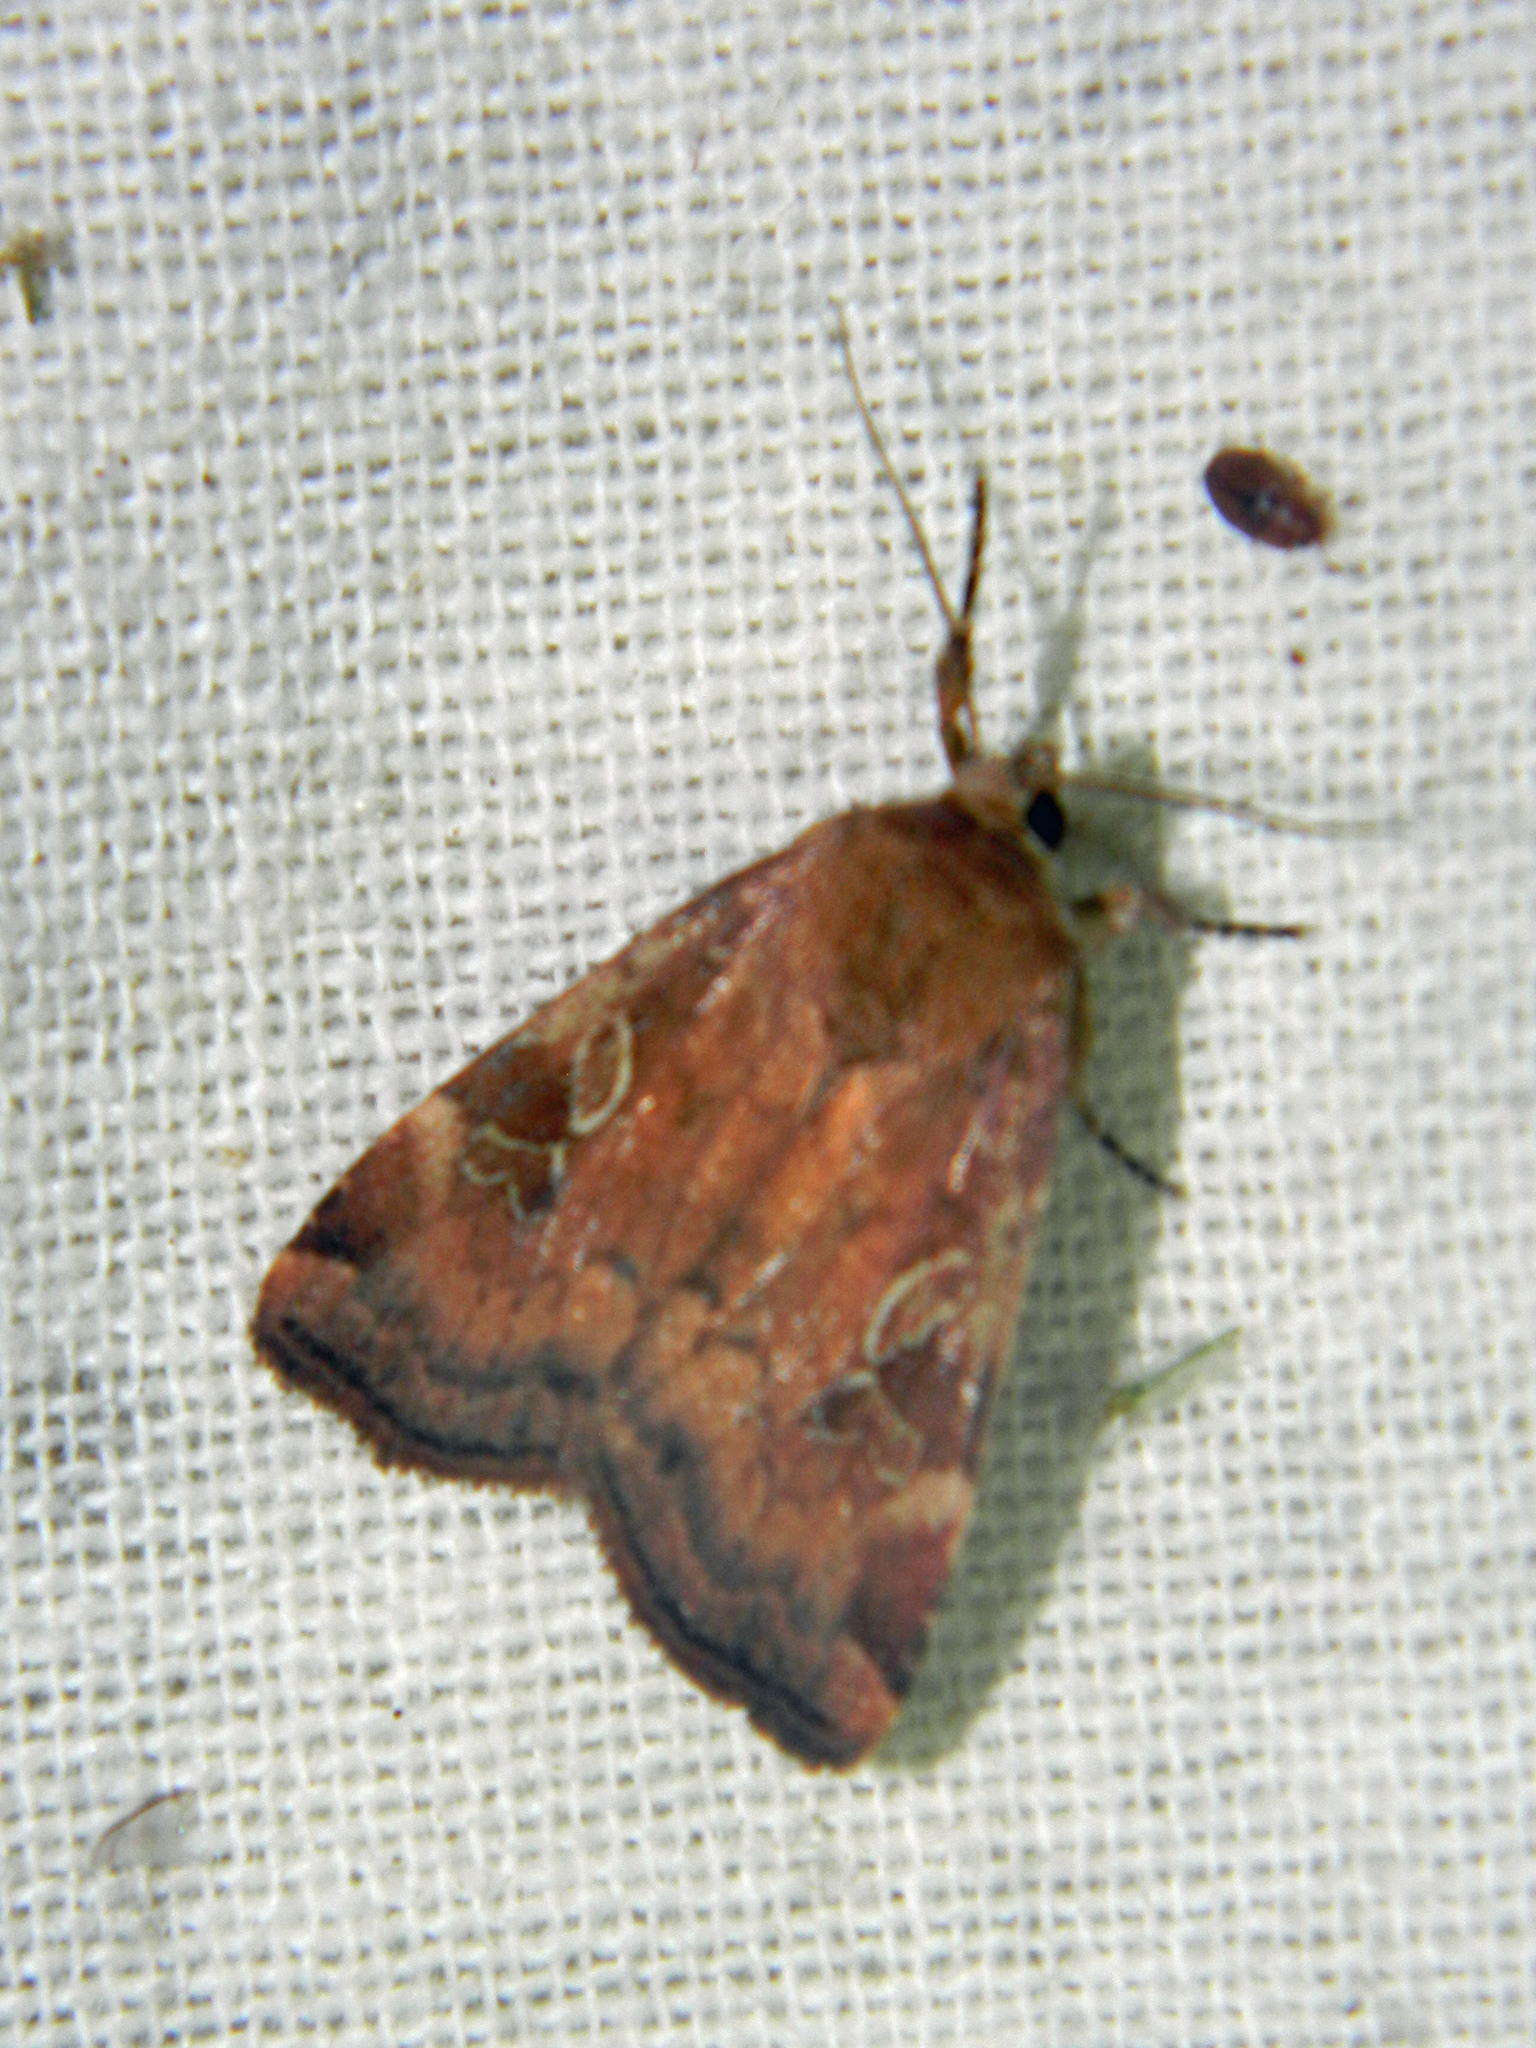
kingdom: Animalia
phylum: Arthropoda
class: Insecta
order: Lepidoptera
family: Noctuidae
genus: Cryptocala
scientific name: Cryptocala acadiensis
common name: Catocaline dart
